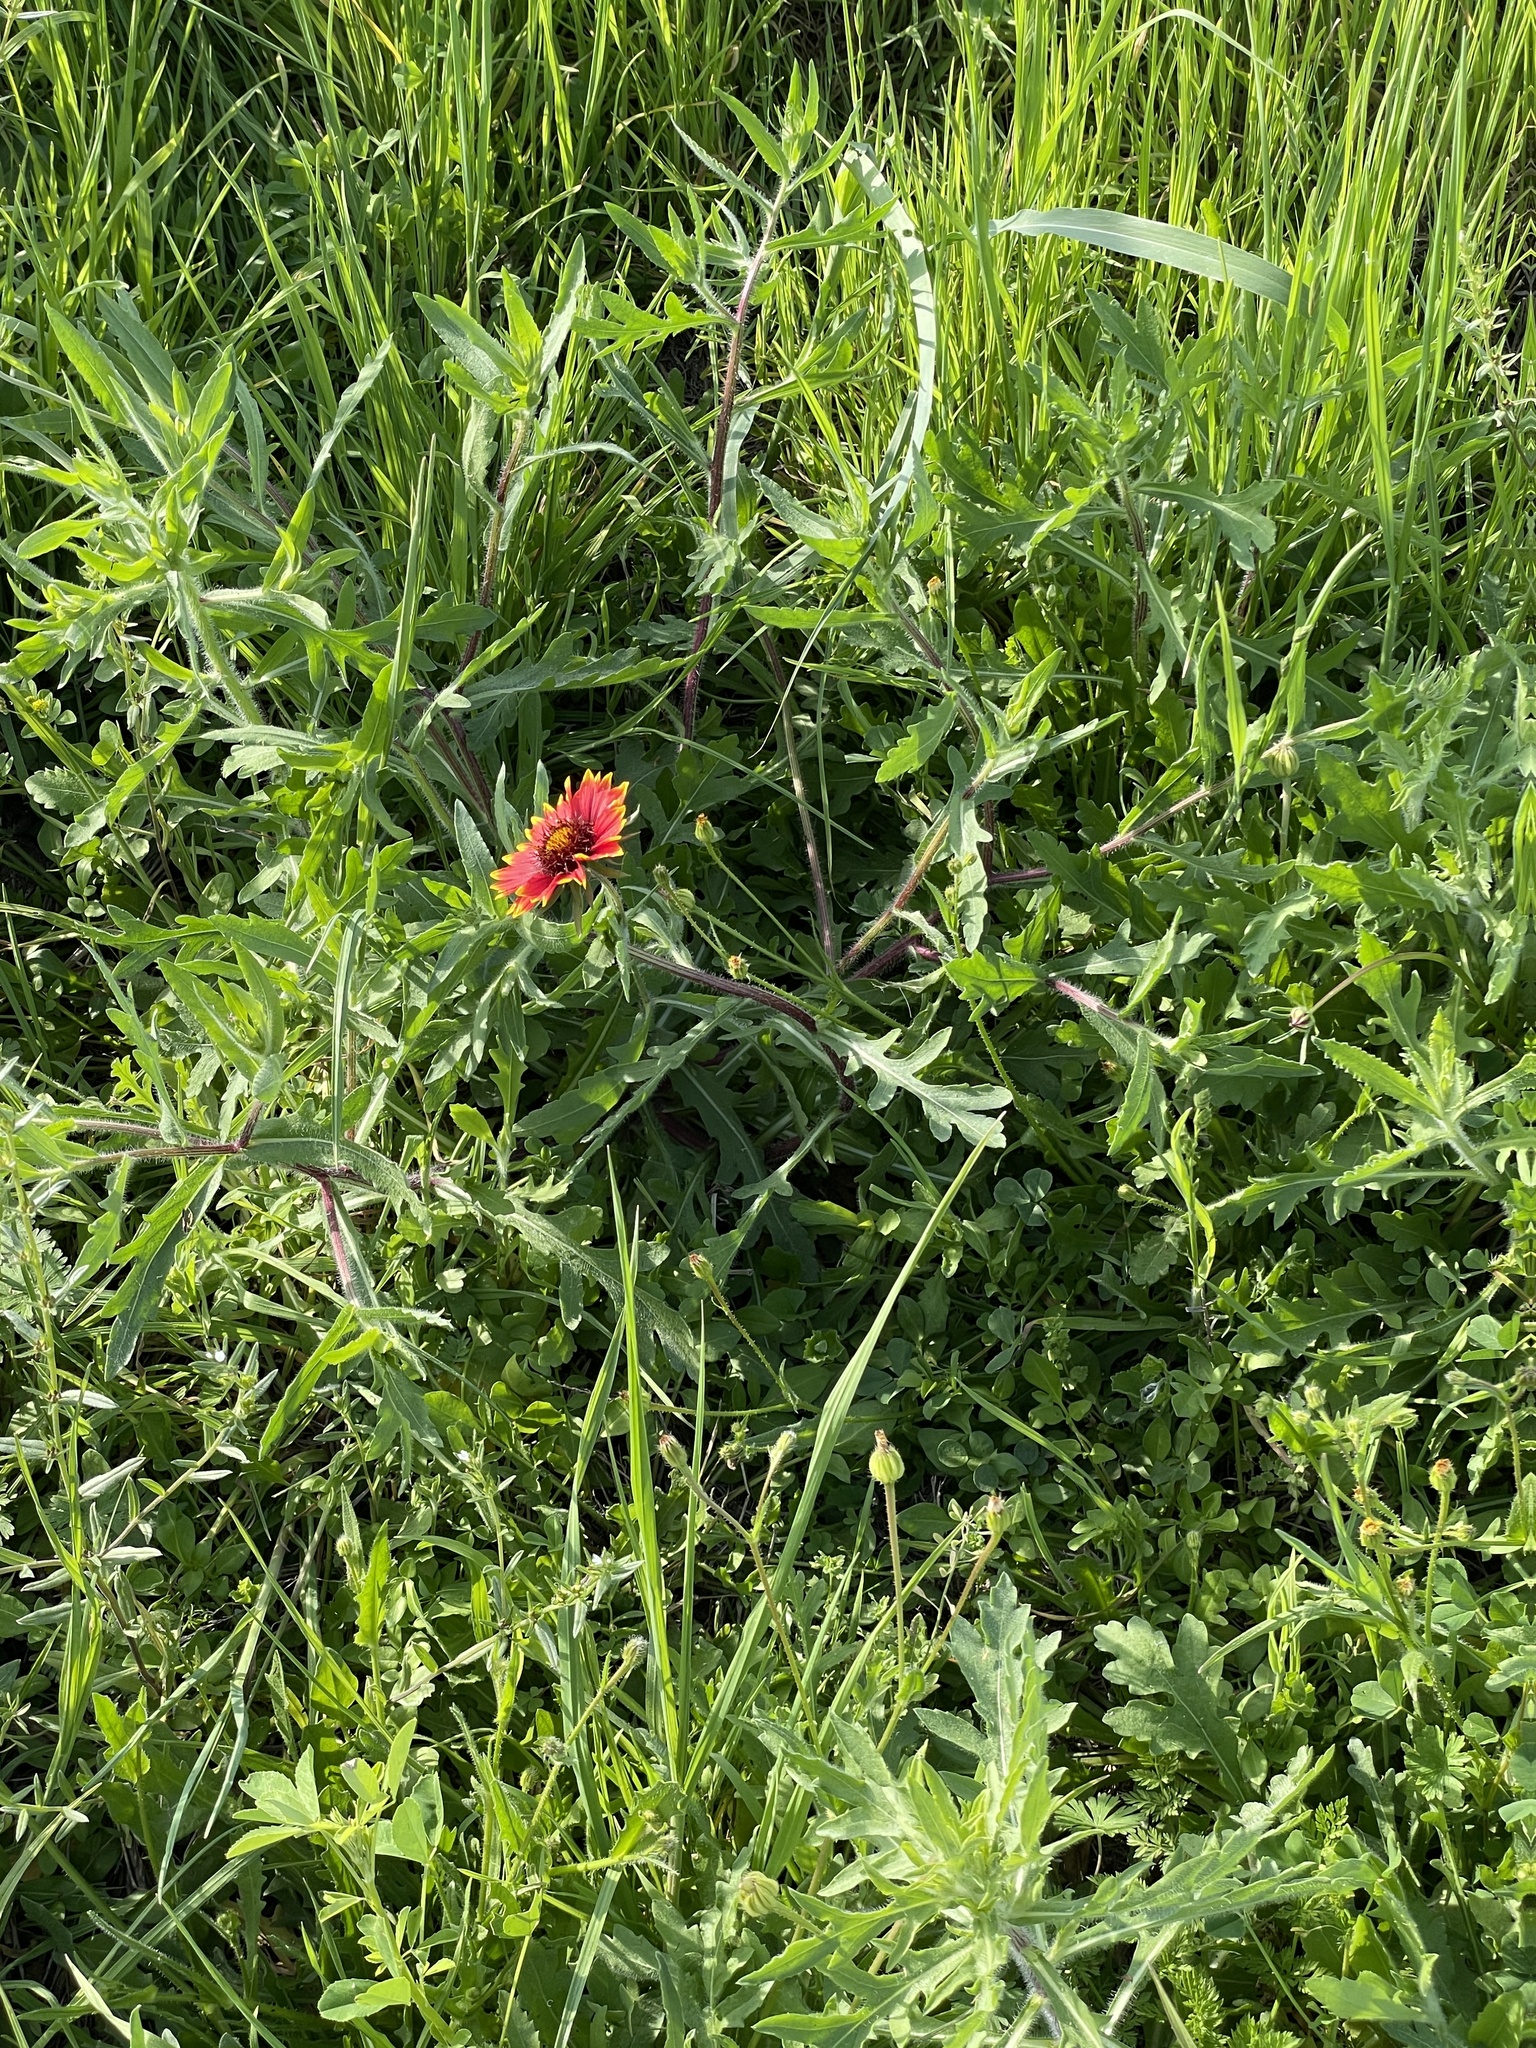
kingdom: Plantae
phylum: Tracheophyta
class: Magnoliopsida
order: Asterales
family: Asteraceae
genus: Gaillardia
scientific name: Gaillardia pulchella
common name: Firewheel
